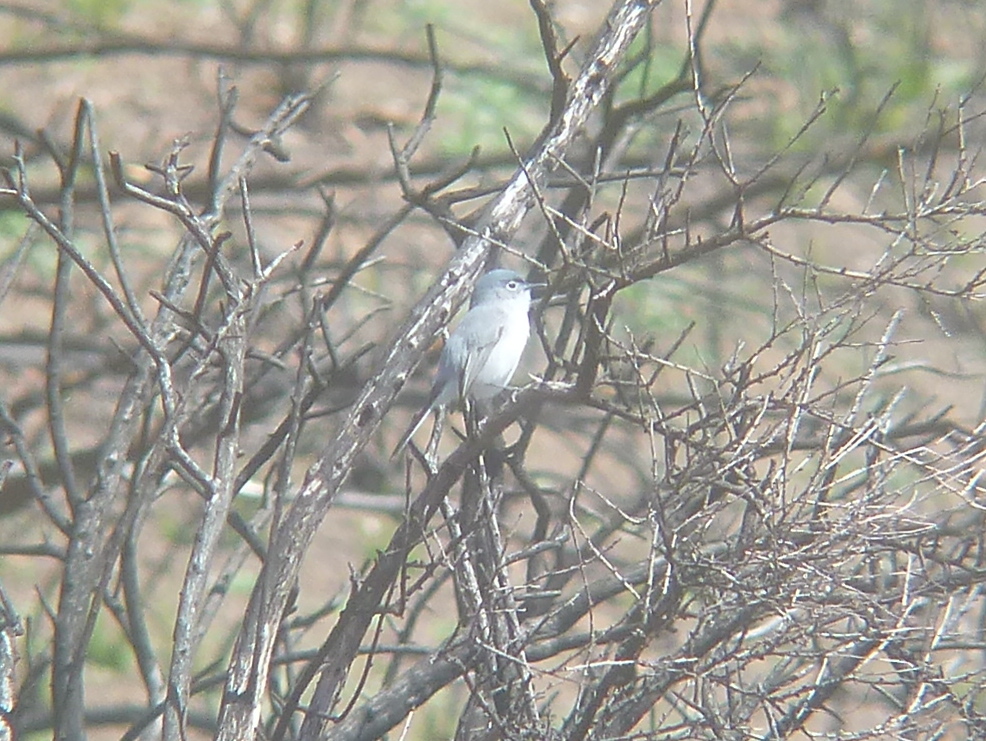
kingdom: Animalia
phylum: Chordata
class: Aves
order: Passeriformes
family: Polioptilidae
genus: Polioptila
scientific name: Polioptila caerulea
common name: Blue-gray gnatcatcher
